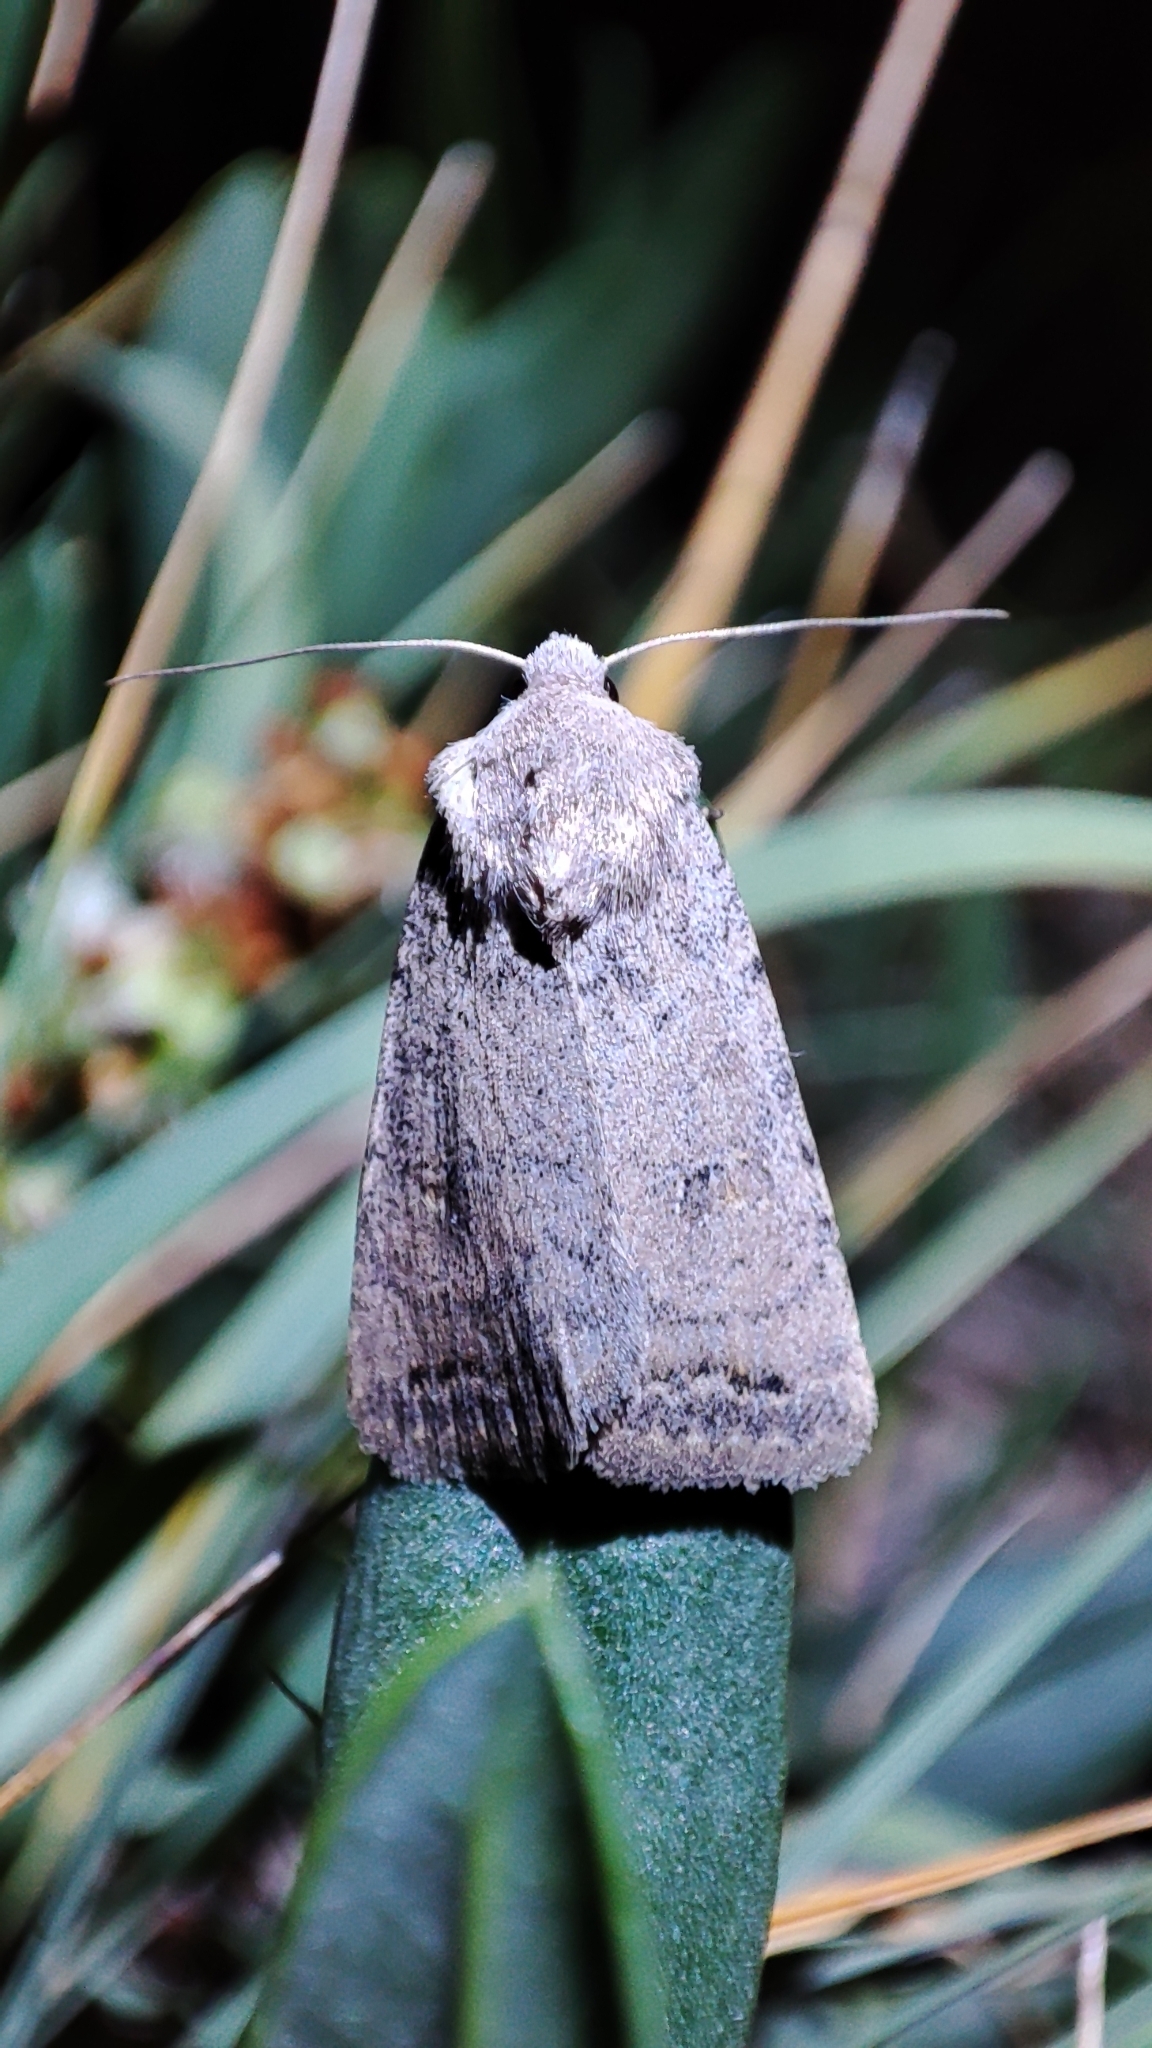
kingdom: Animalia
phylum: Arthropoda
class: Insecta
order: Lepidoptera
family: Noctuidae
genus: Caradrina
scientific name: Caradrina terrea
